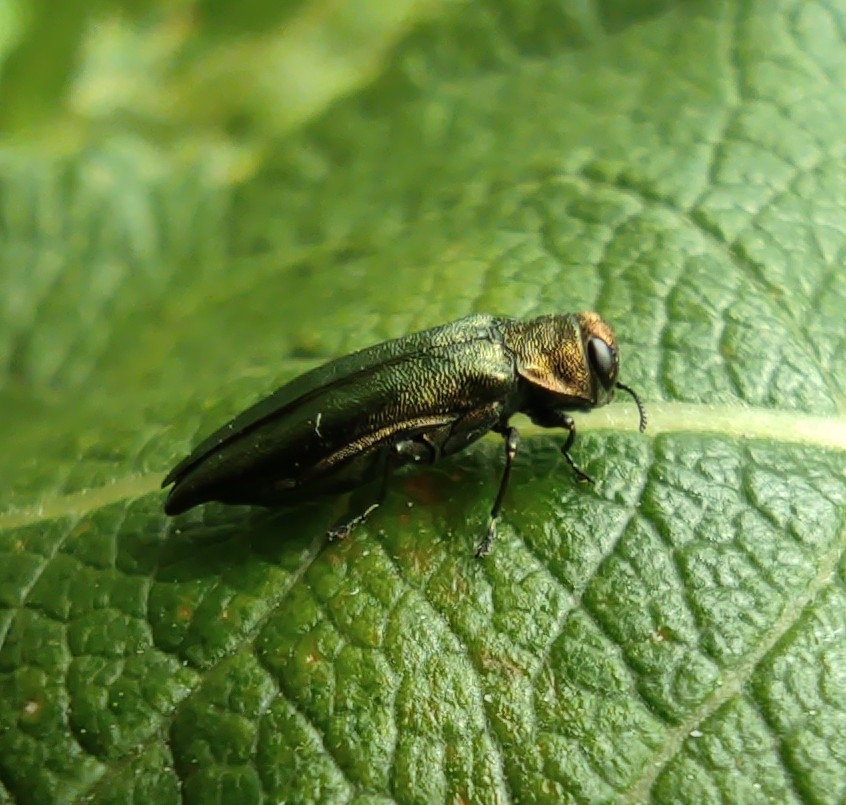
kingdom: Animalia
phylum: Arthropoda
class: Insecta
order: Coleoptera
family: Buprestidae
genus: Agrilus
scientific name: Agrilus viridis
